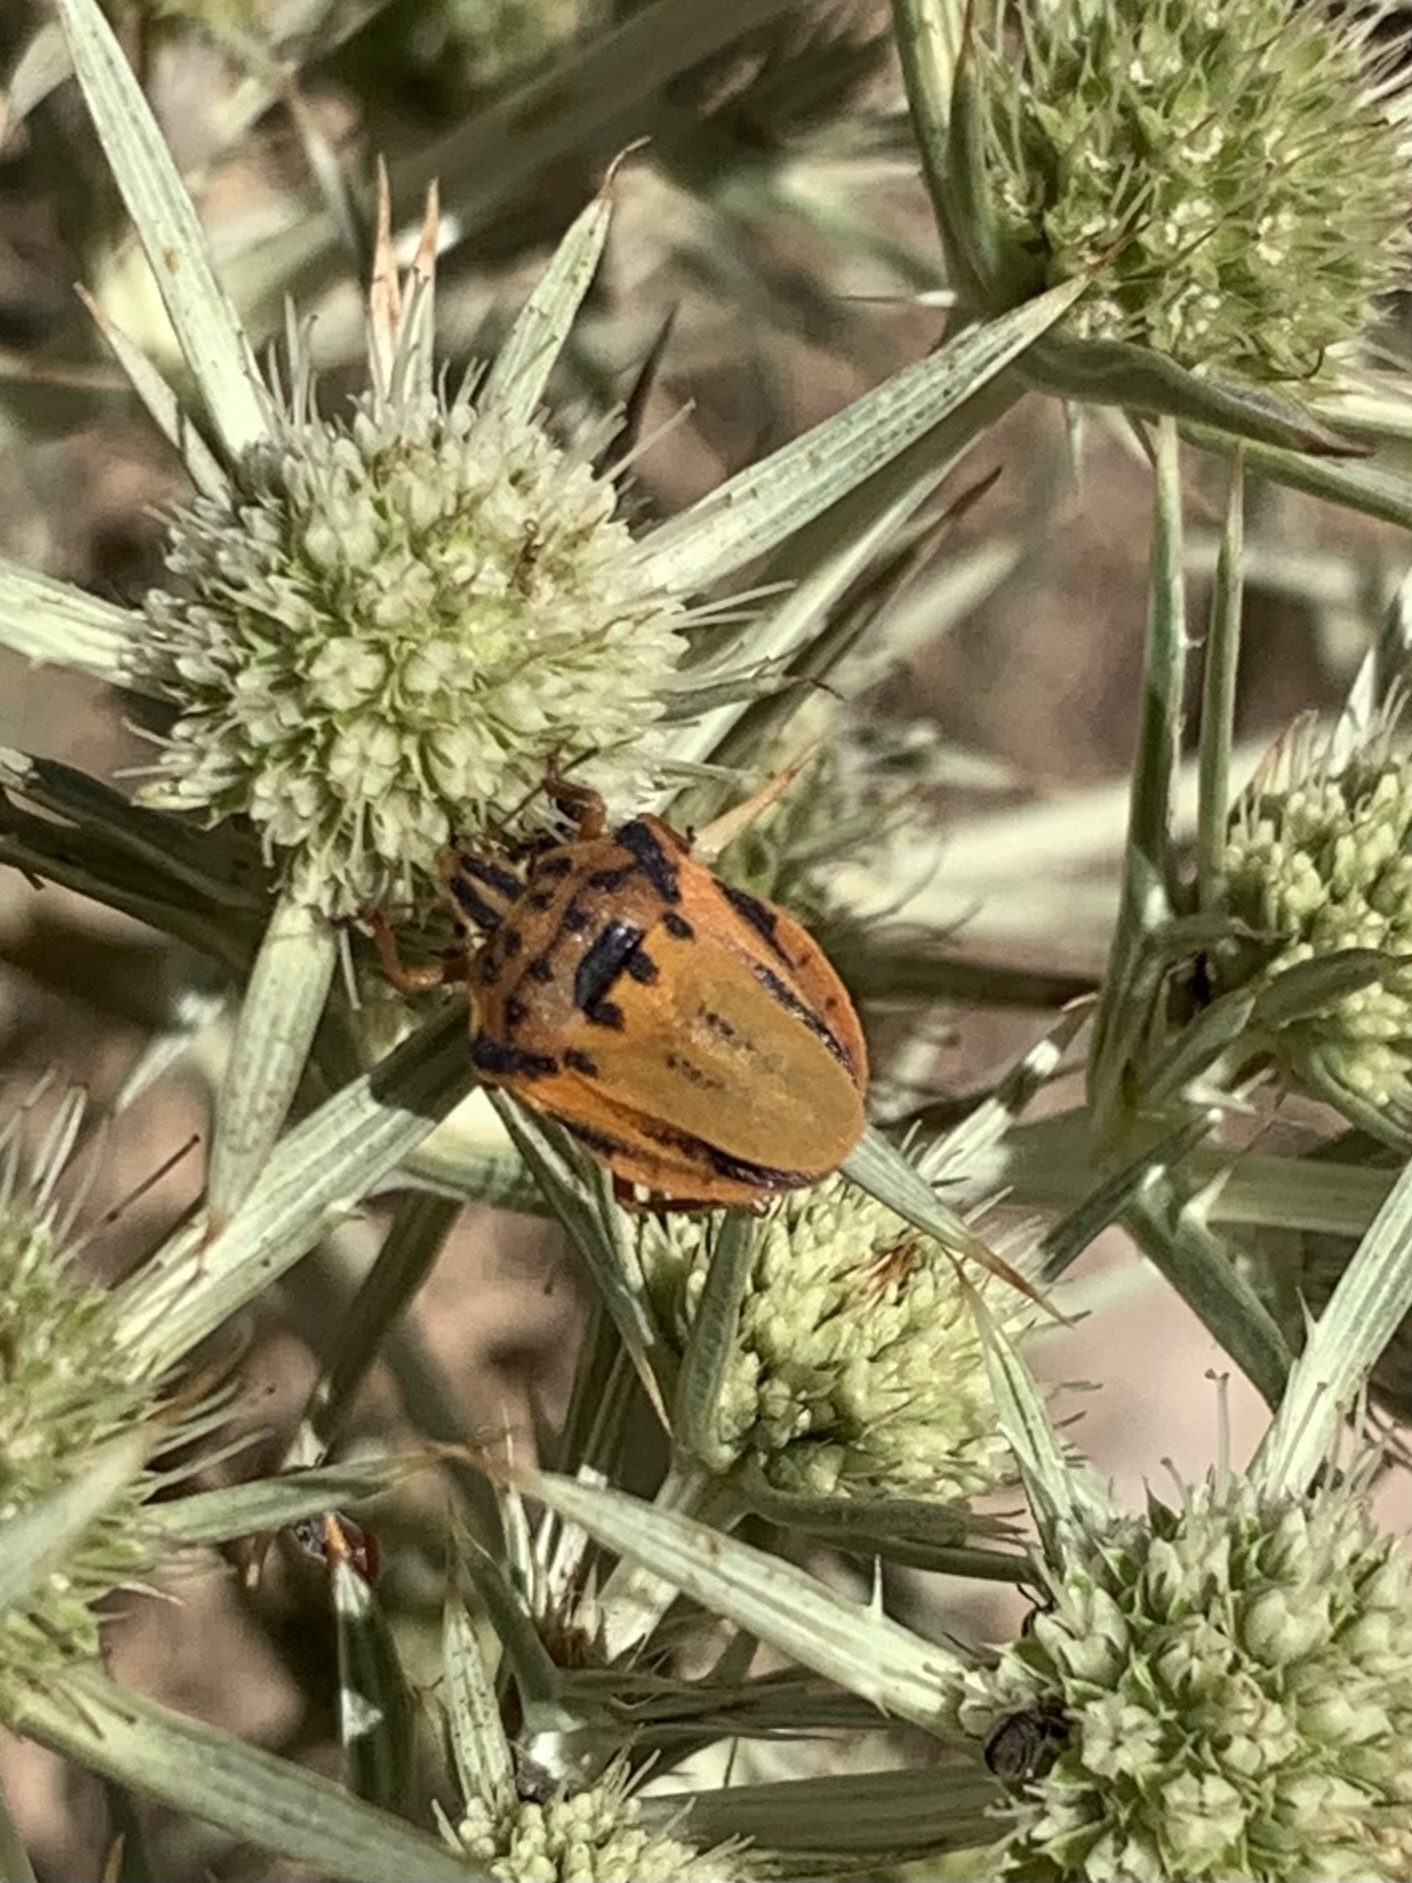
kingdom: Animalia
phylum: Arthropoda
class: Insecta
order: Hemiptera
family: Pentatomidae
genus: Graphosoma
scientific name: Graphosoma semipunctatum
